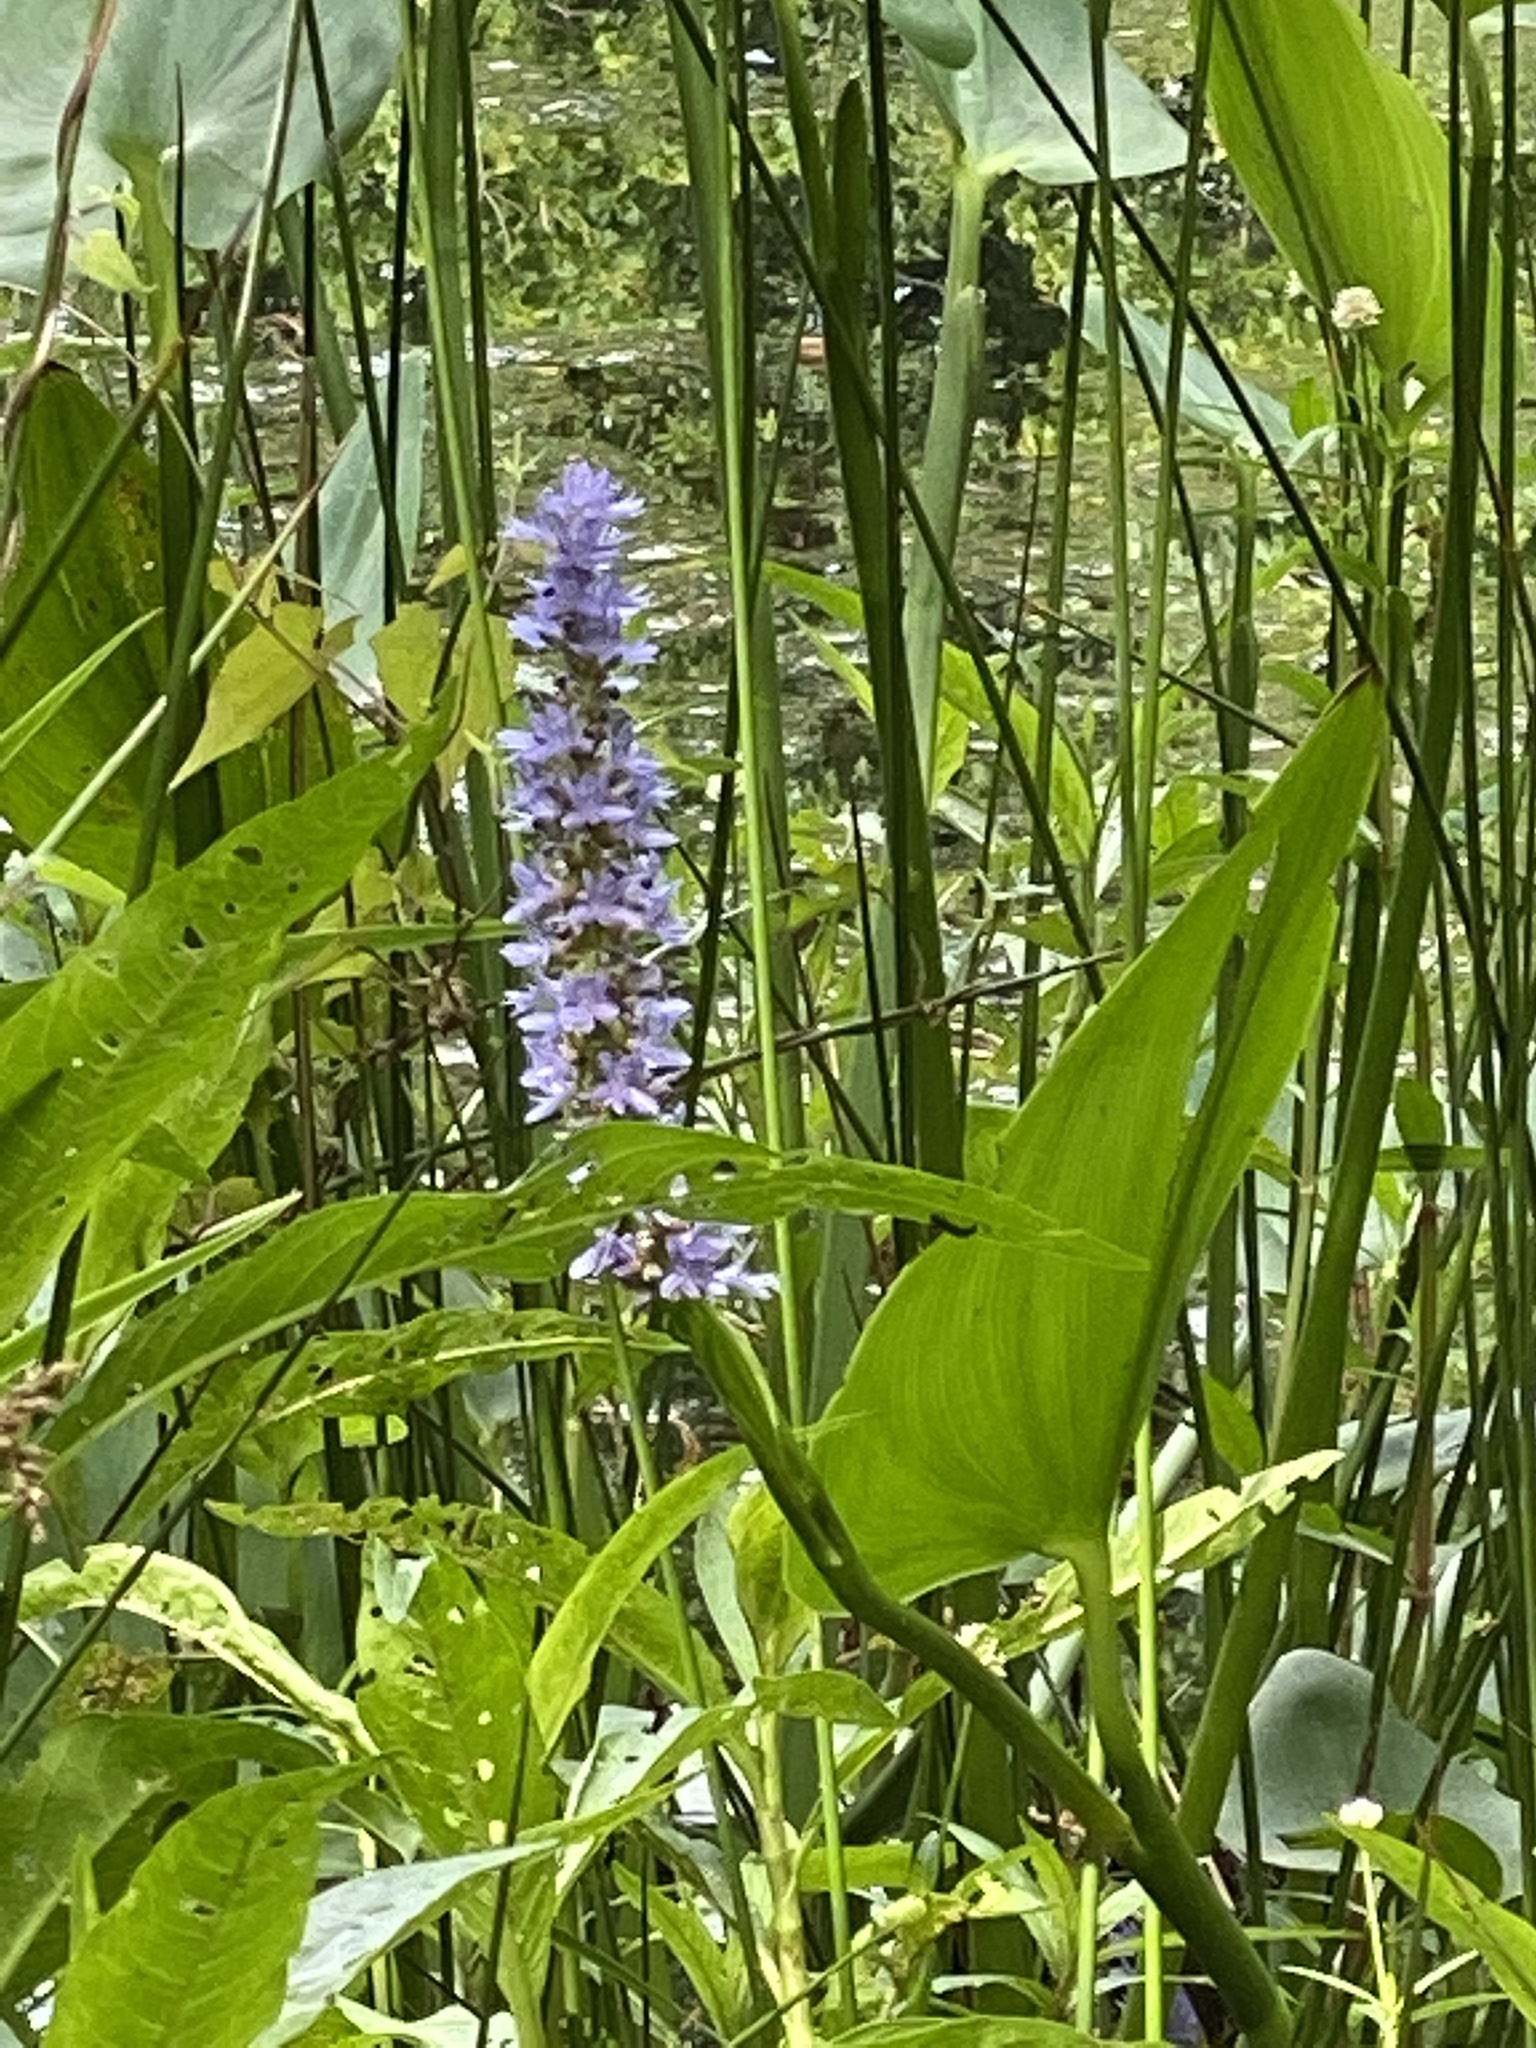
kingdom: Plantae
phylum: Tracheophyta
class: Liliopsida
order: Commelinales
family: Pontederiaceae
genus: Pontederia
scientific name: Pontederia cordata
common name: Pickerelweed
